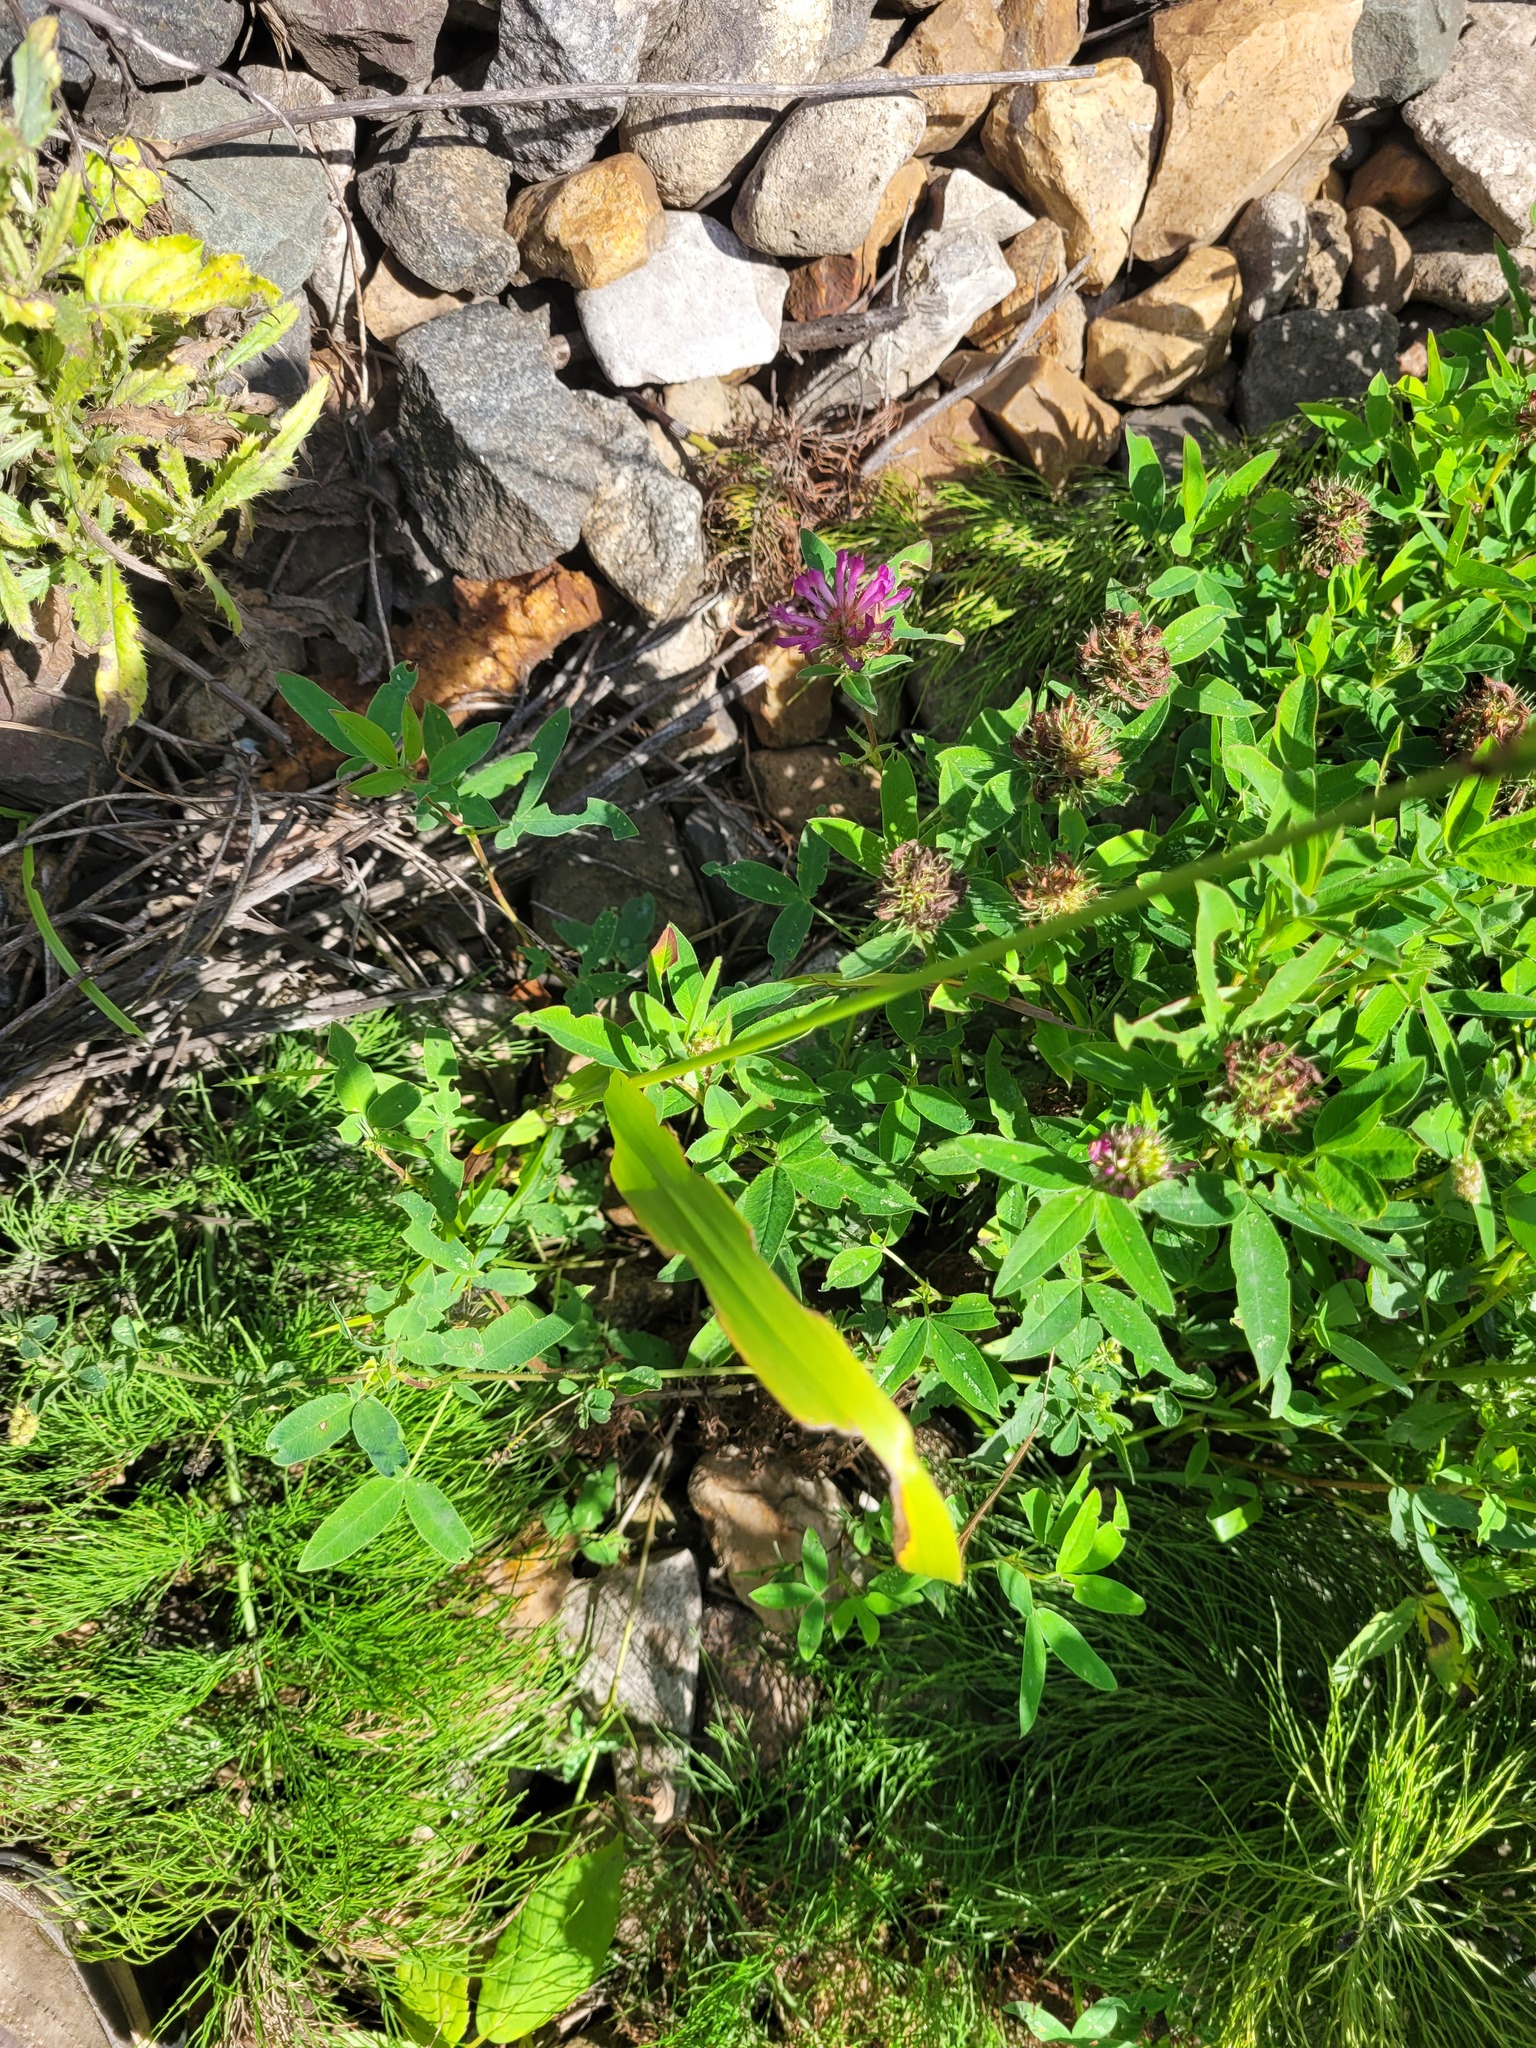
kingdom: Plantae
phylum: Tracheophyta
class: Liliopsida
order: Poales
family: Poaceae
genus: Lolium
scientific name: Lolium giganteum
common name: Giant fescue
